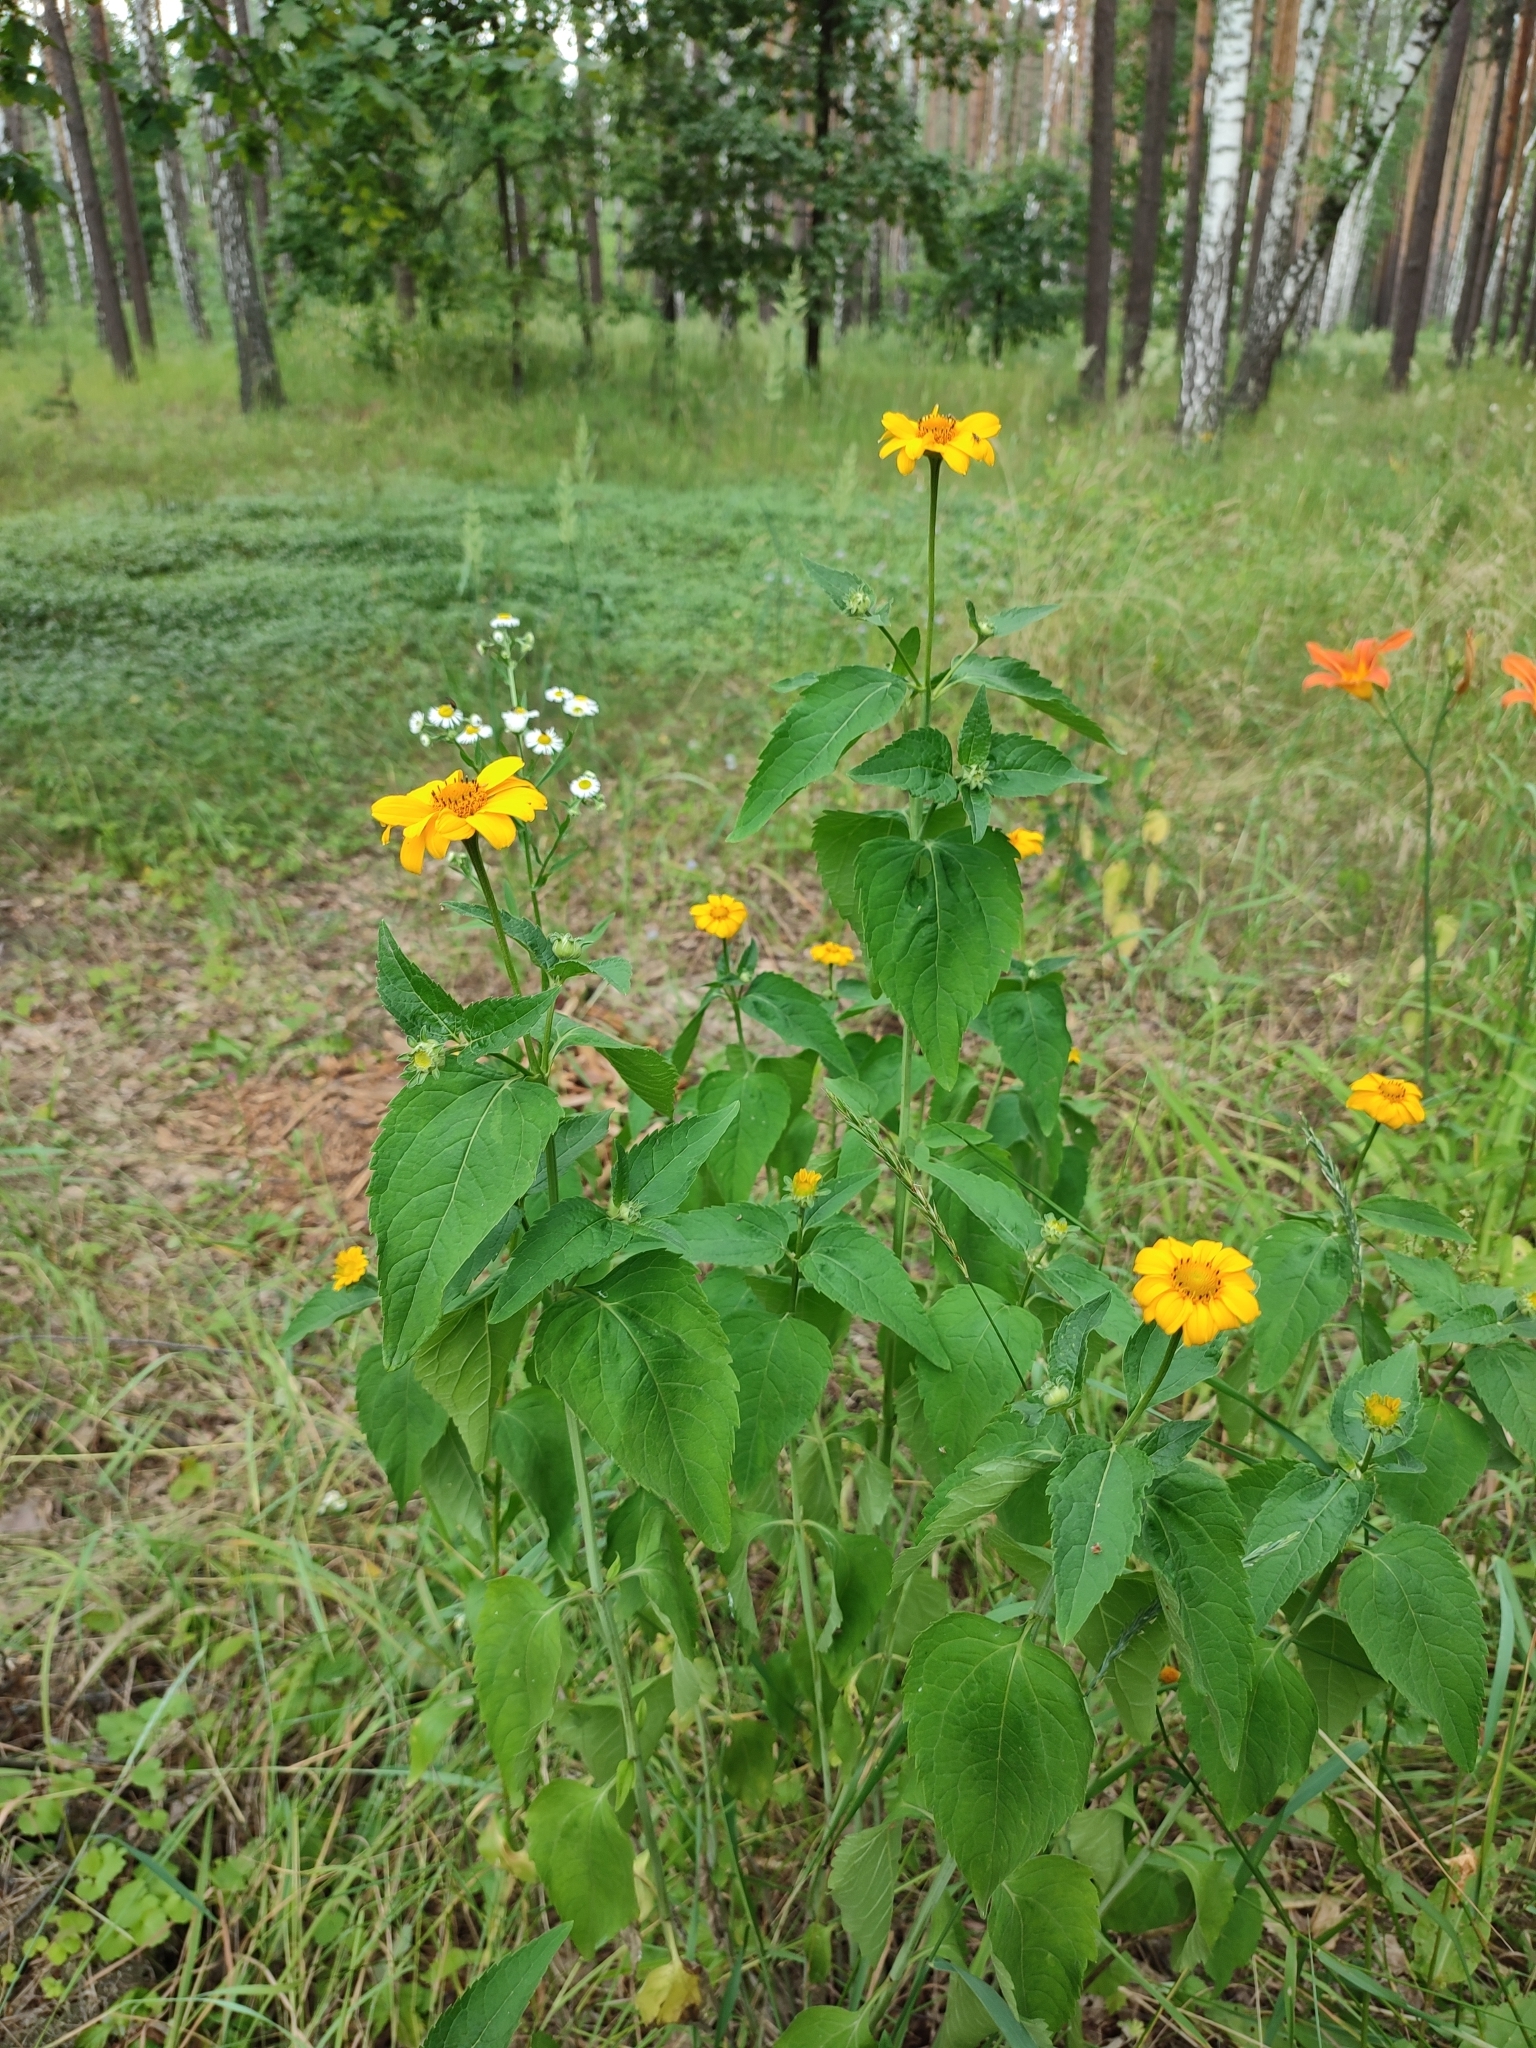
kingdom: Plantae
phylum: Tracheophyta
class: Magnoliopsida
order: Asterales
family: Asteraceae
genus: Heliopsis
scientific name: Heliopsis helianthoides
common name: False sunflower
